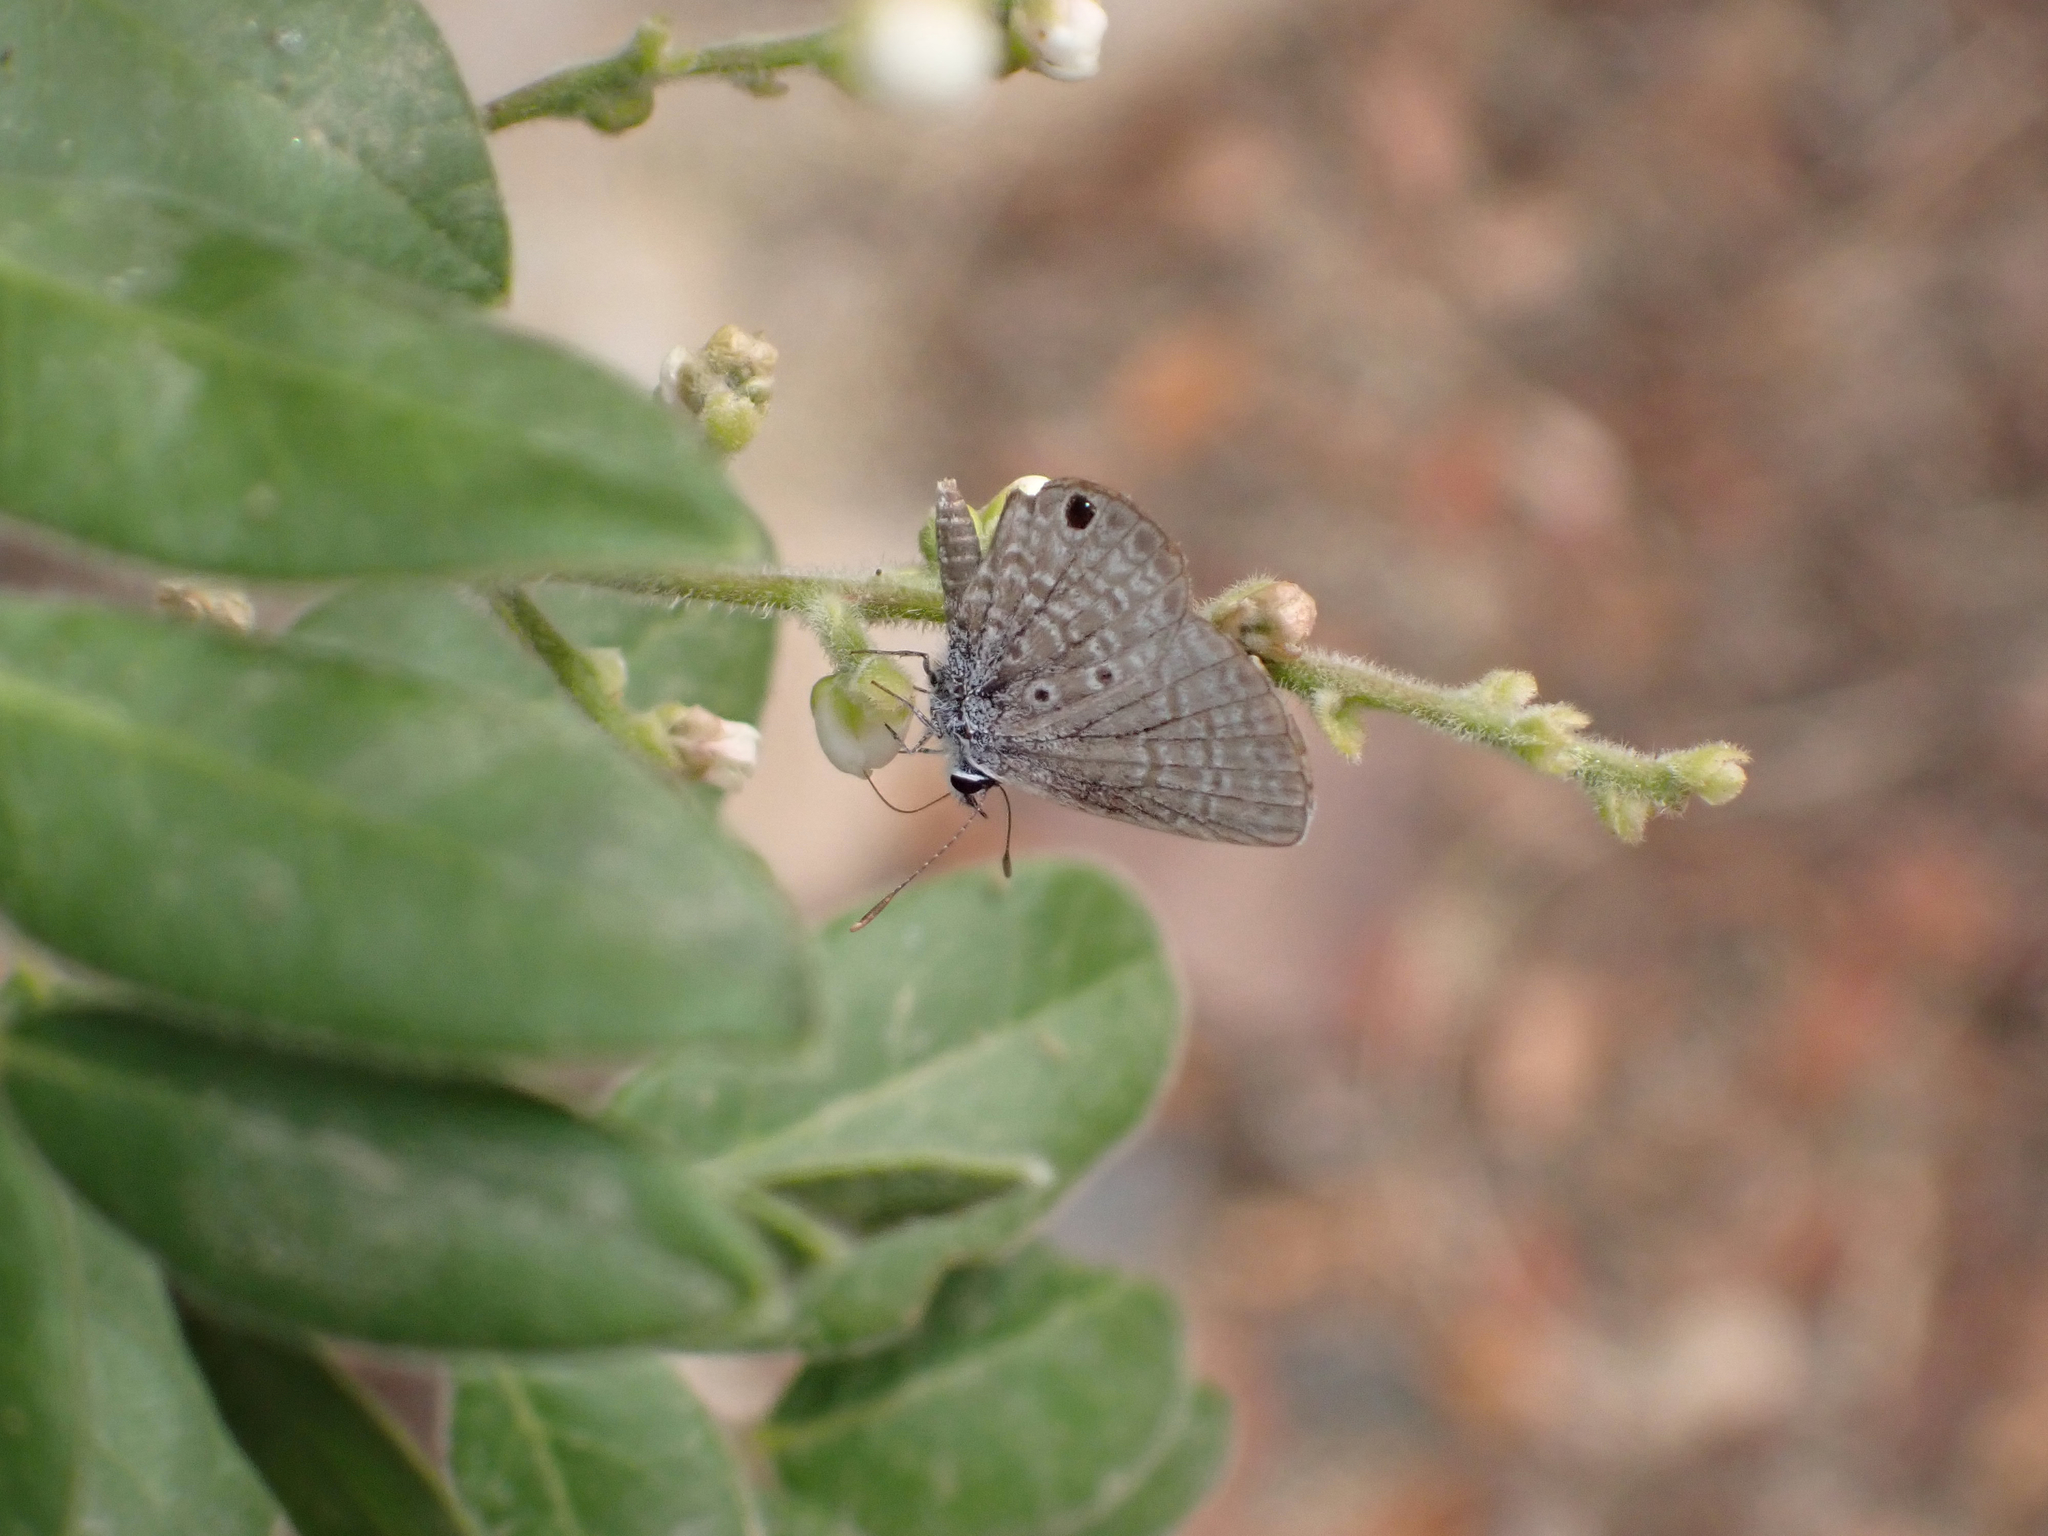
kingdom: Animalia
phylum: Arthropoda
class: Insecta
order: Lepidoptera
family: Lycaenidae
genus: Hemiargus
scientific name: Hemiargus ceraunus
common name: Ceraunus blue
